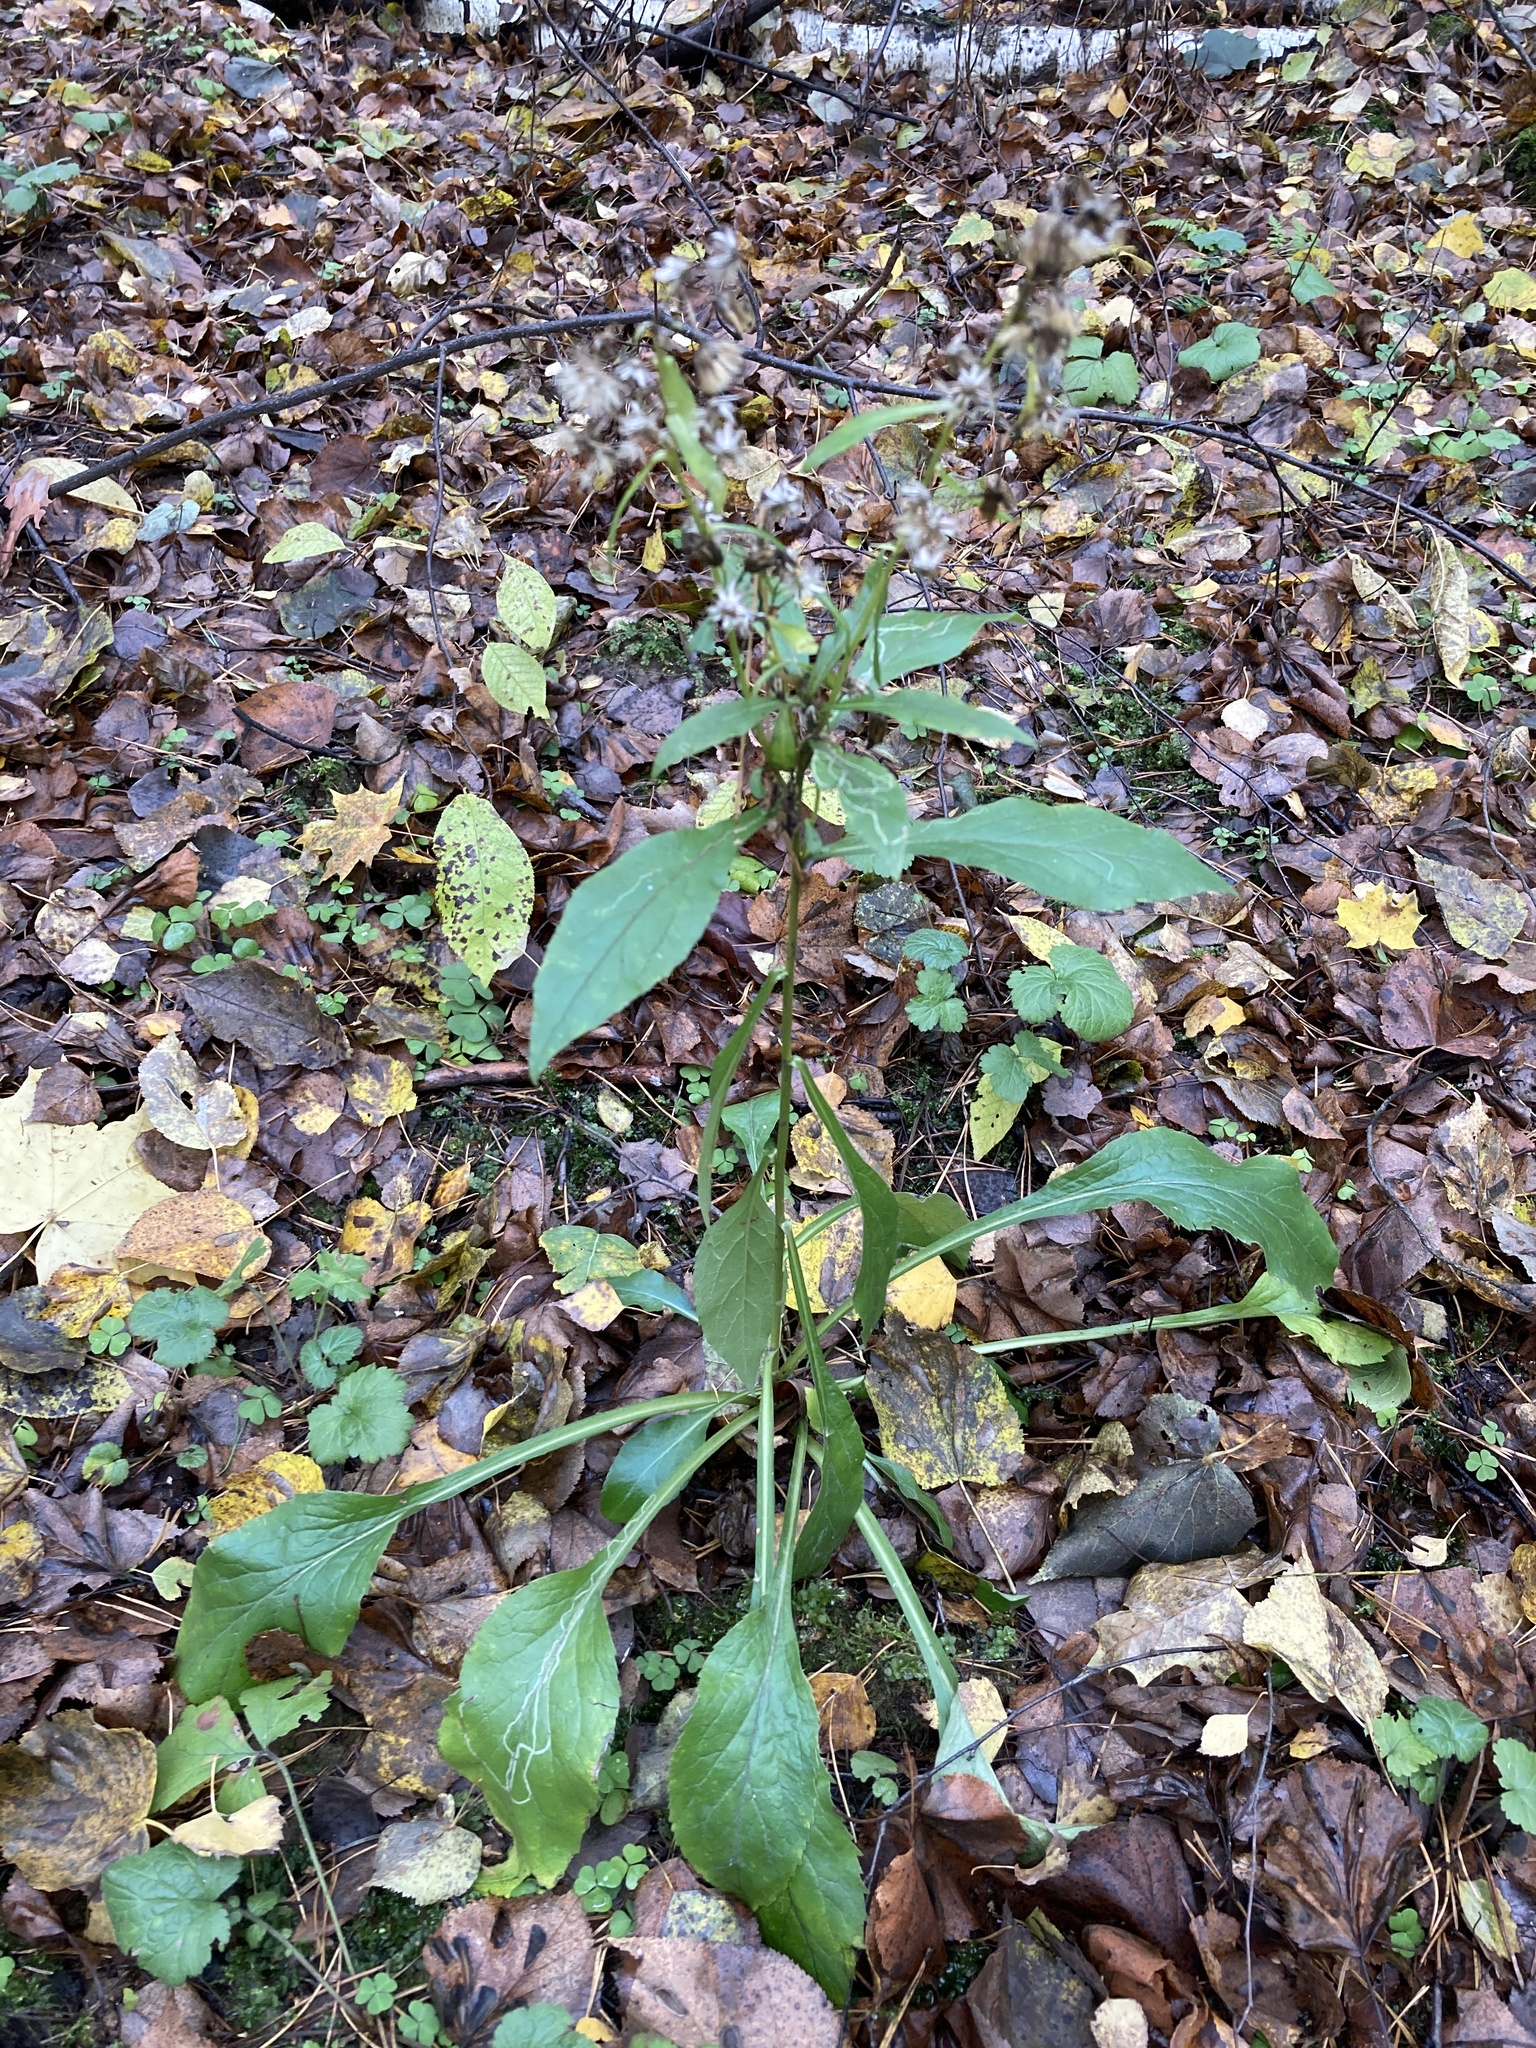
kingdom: Plantae
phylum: Tracheophyta
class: Magnoliopsida
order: Asterales
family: Asteraceae
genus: Solidago
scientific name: Solidago virgaurea
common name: Goldenrod
